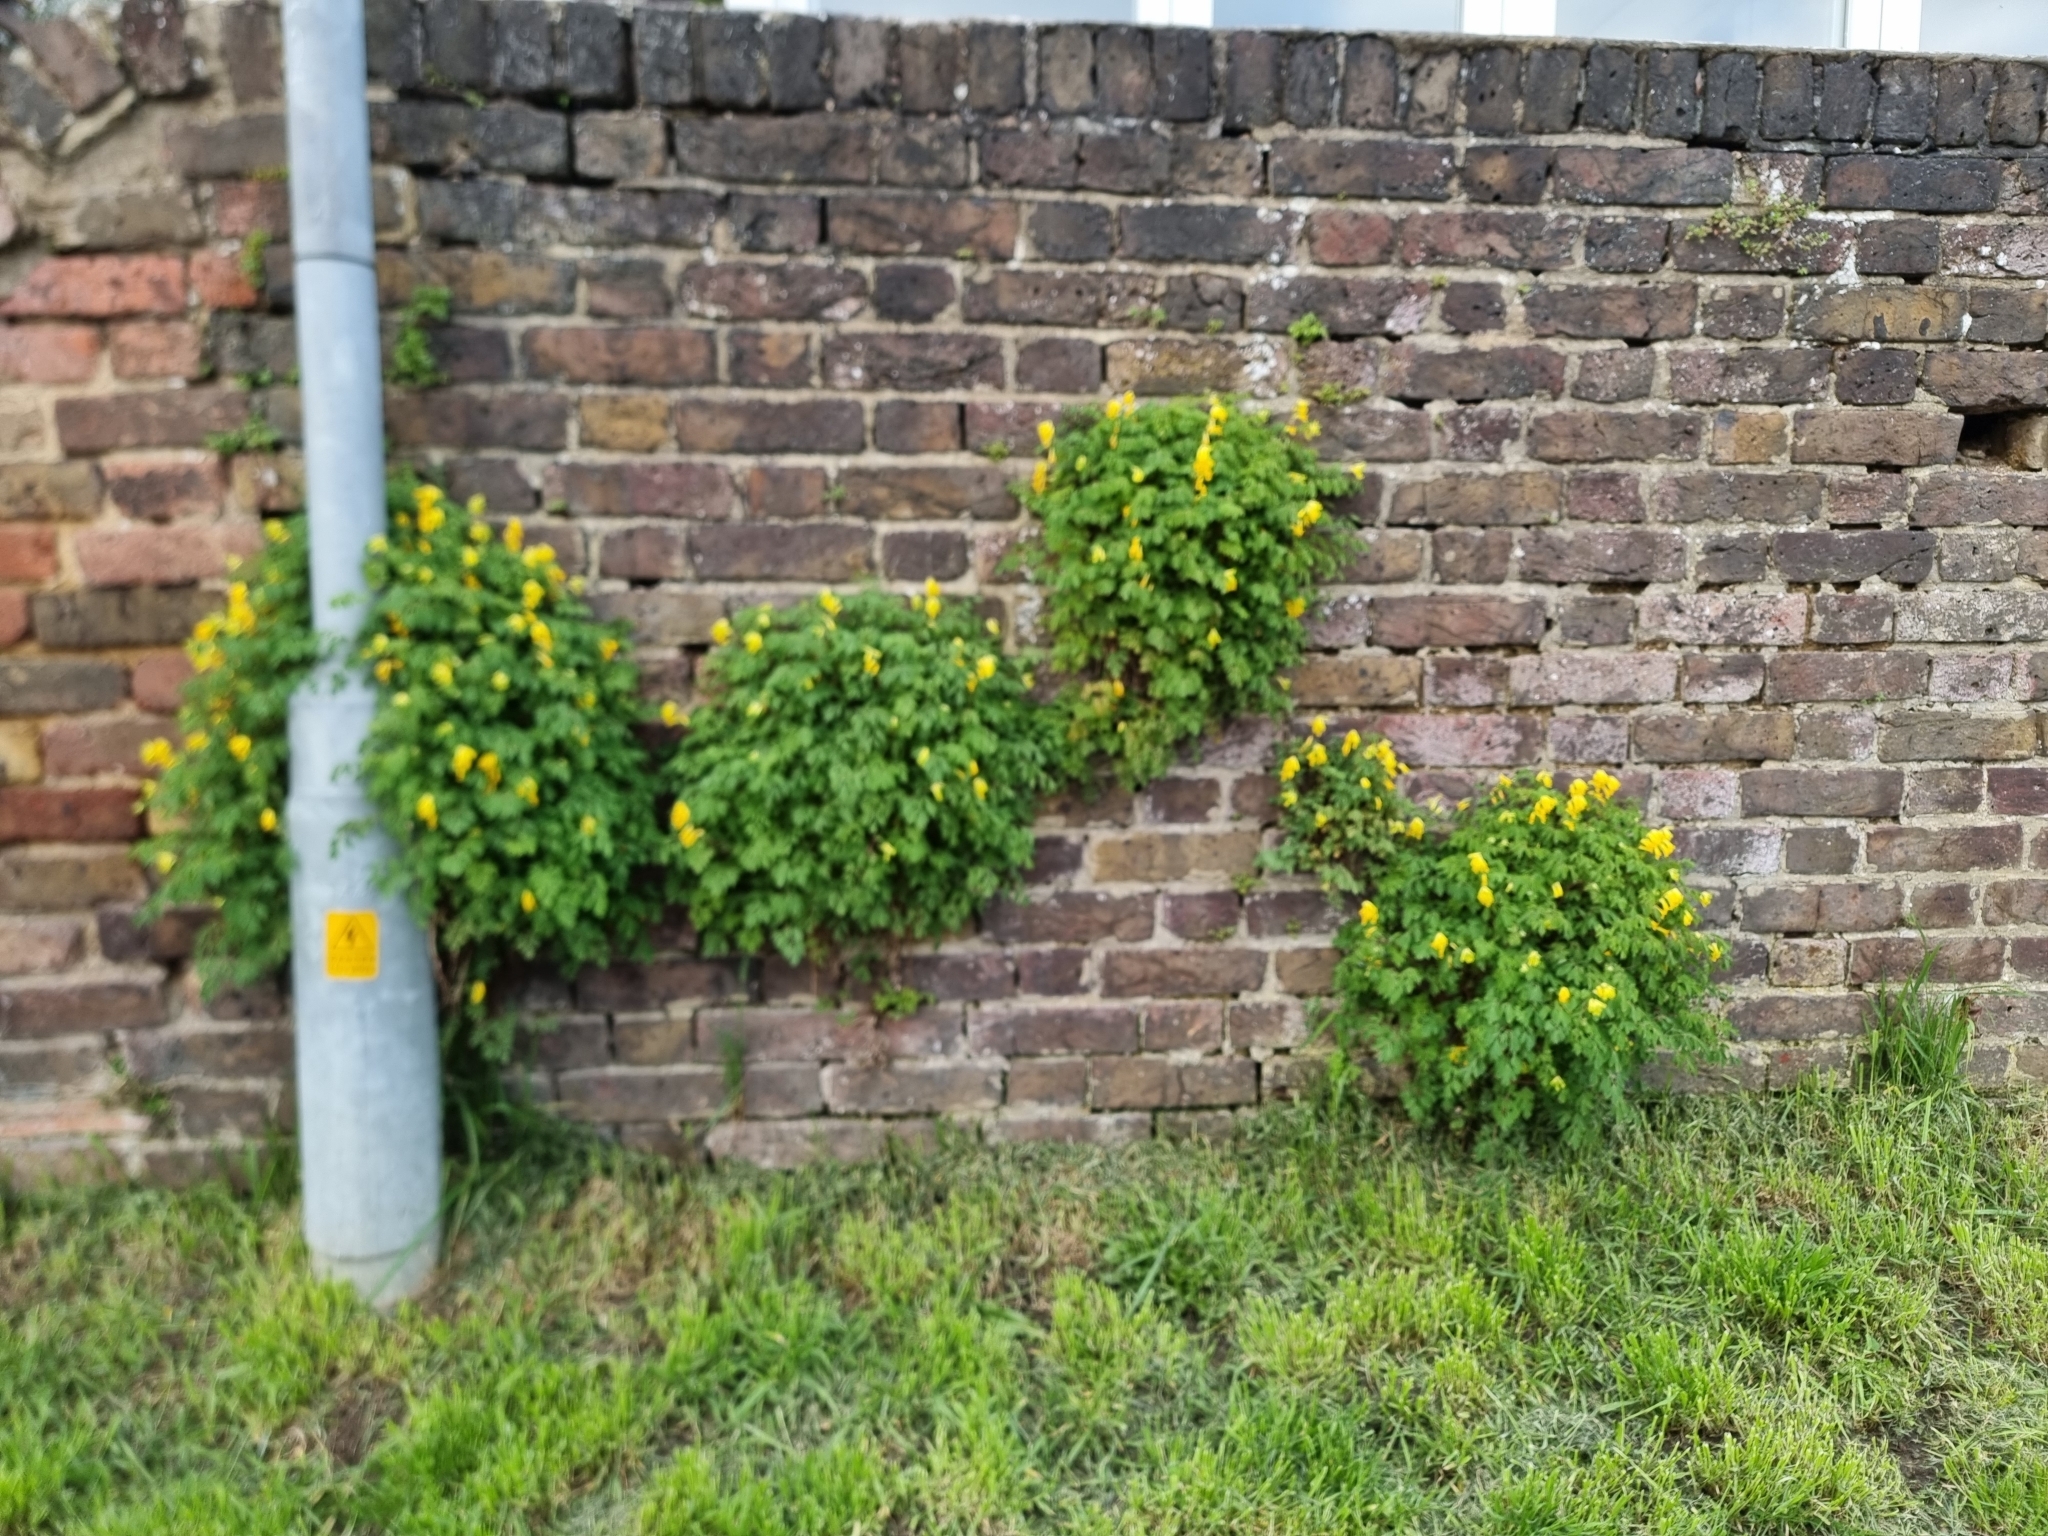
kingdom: Plantae
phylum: Tracheophyta
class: Magnoliopsida
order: Ranunculales
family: Papaveraceae
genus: Pseudofumaria
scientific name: Pseudofumaria lutea
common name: Yellow corydalis
